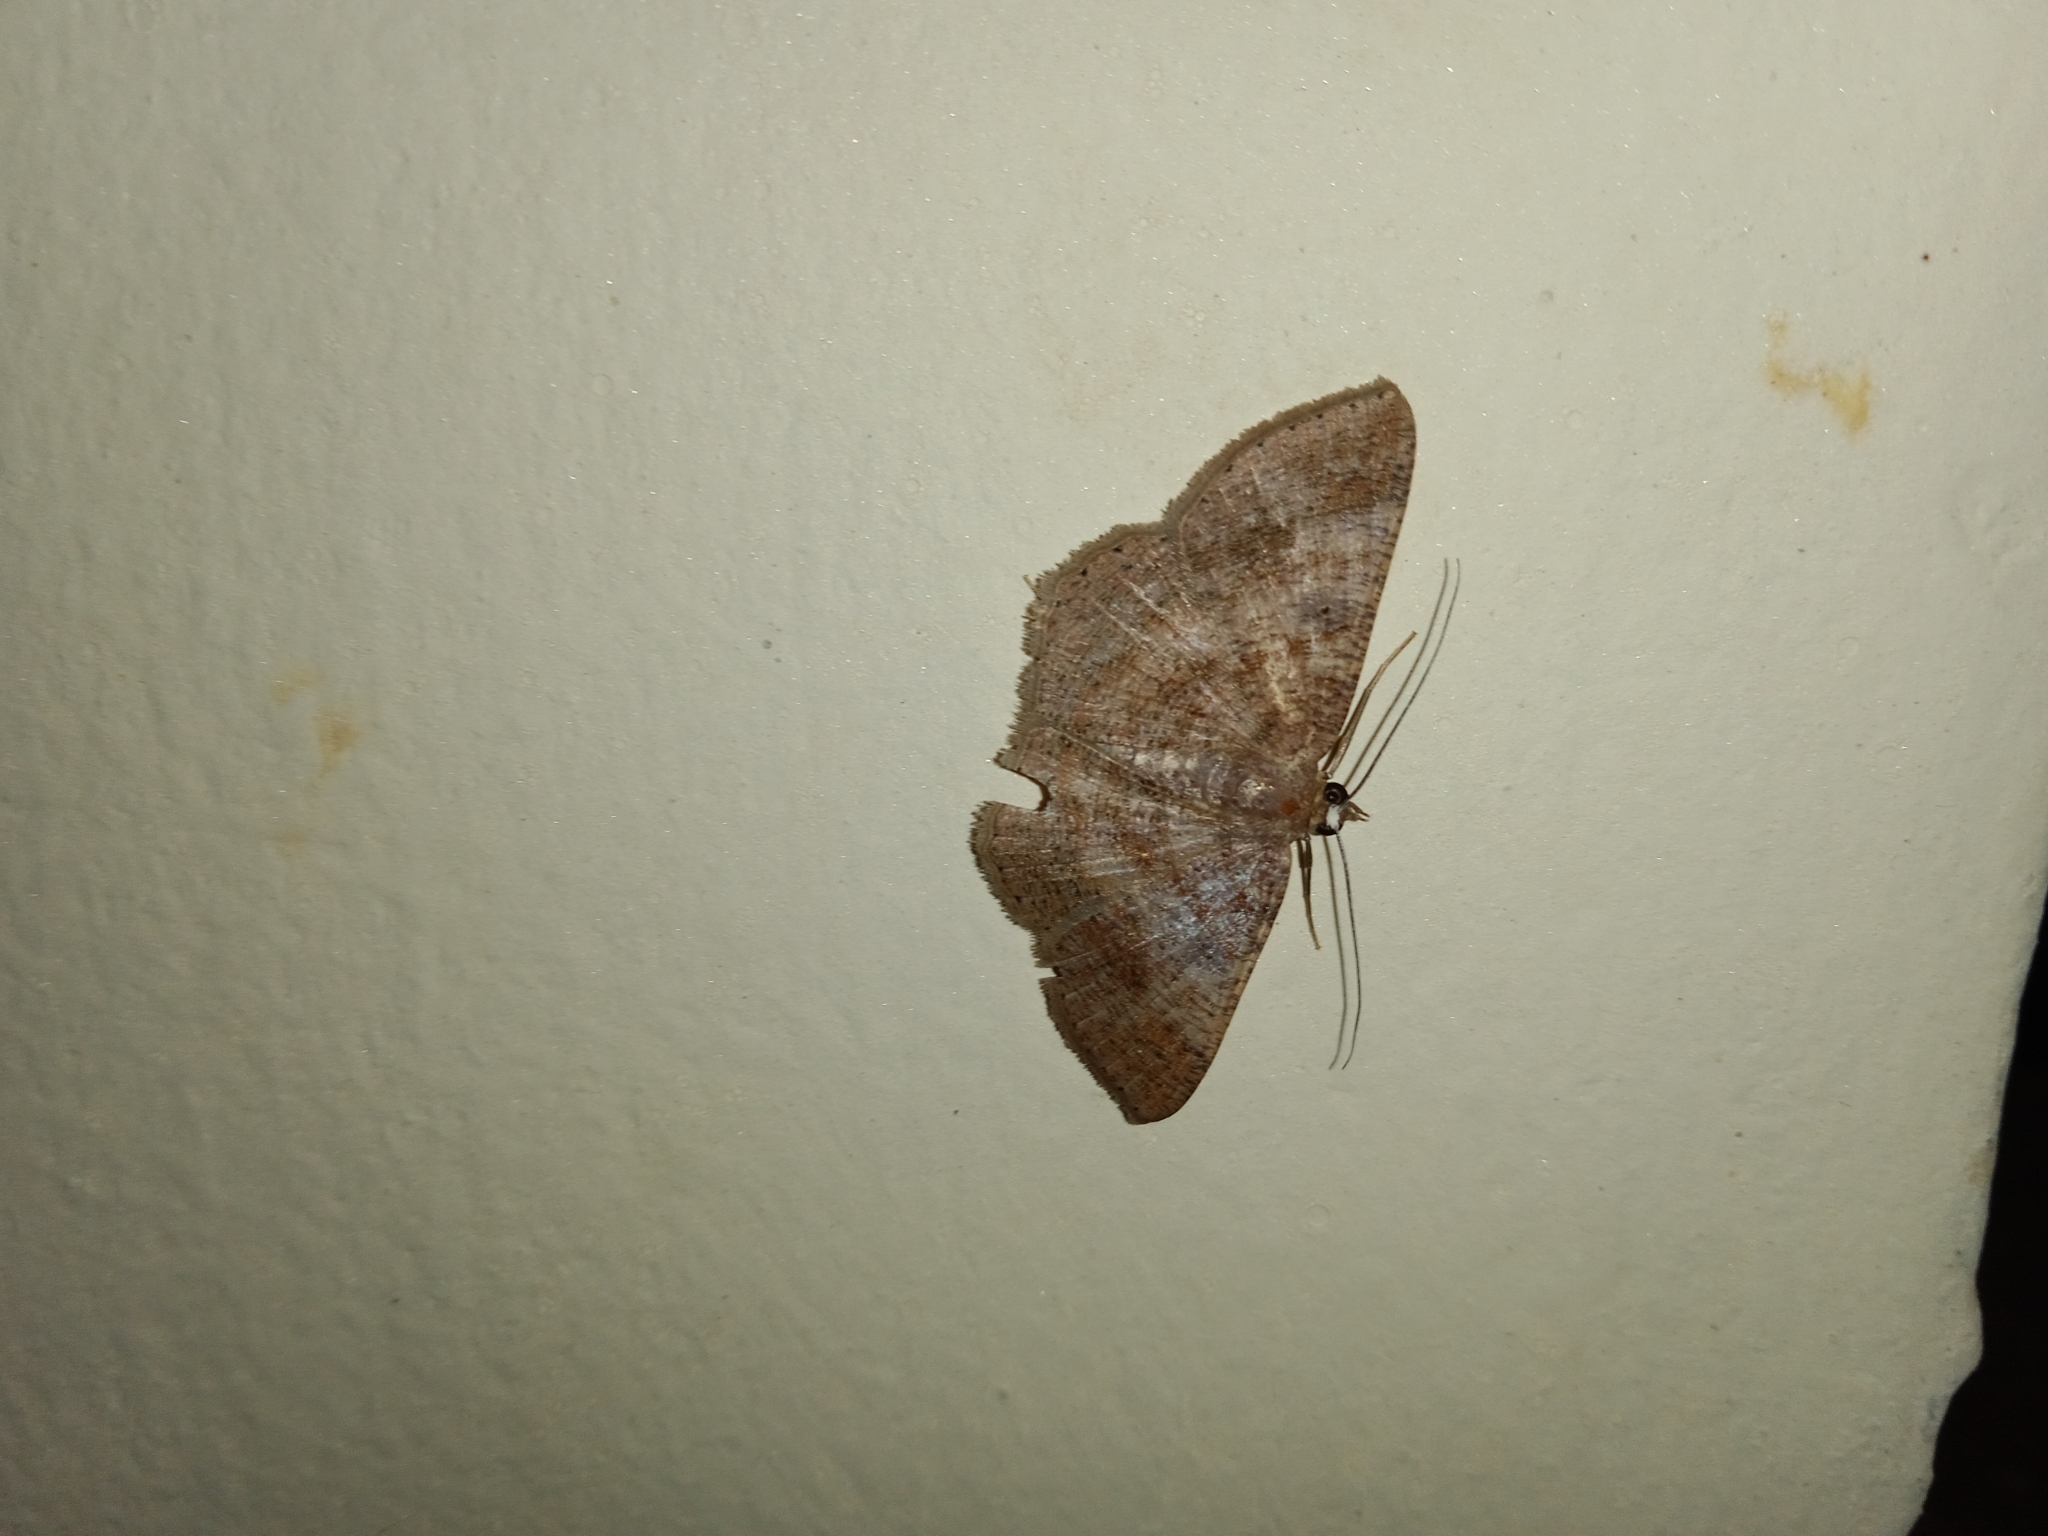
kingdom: Animalia
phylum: Arthropoda
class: Insecta
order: Lepidoptera
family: Geometridae
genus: Petelia
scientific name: Petelia medardaria
